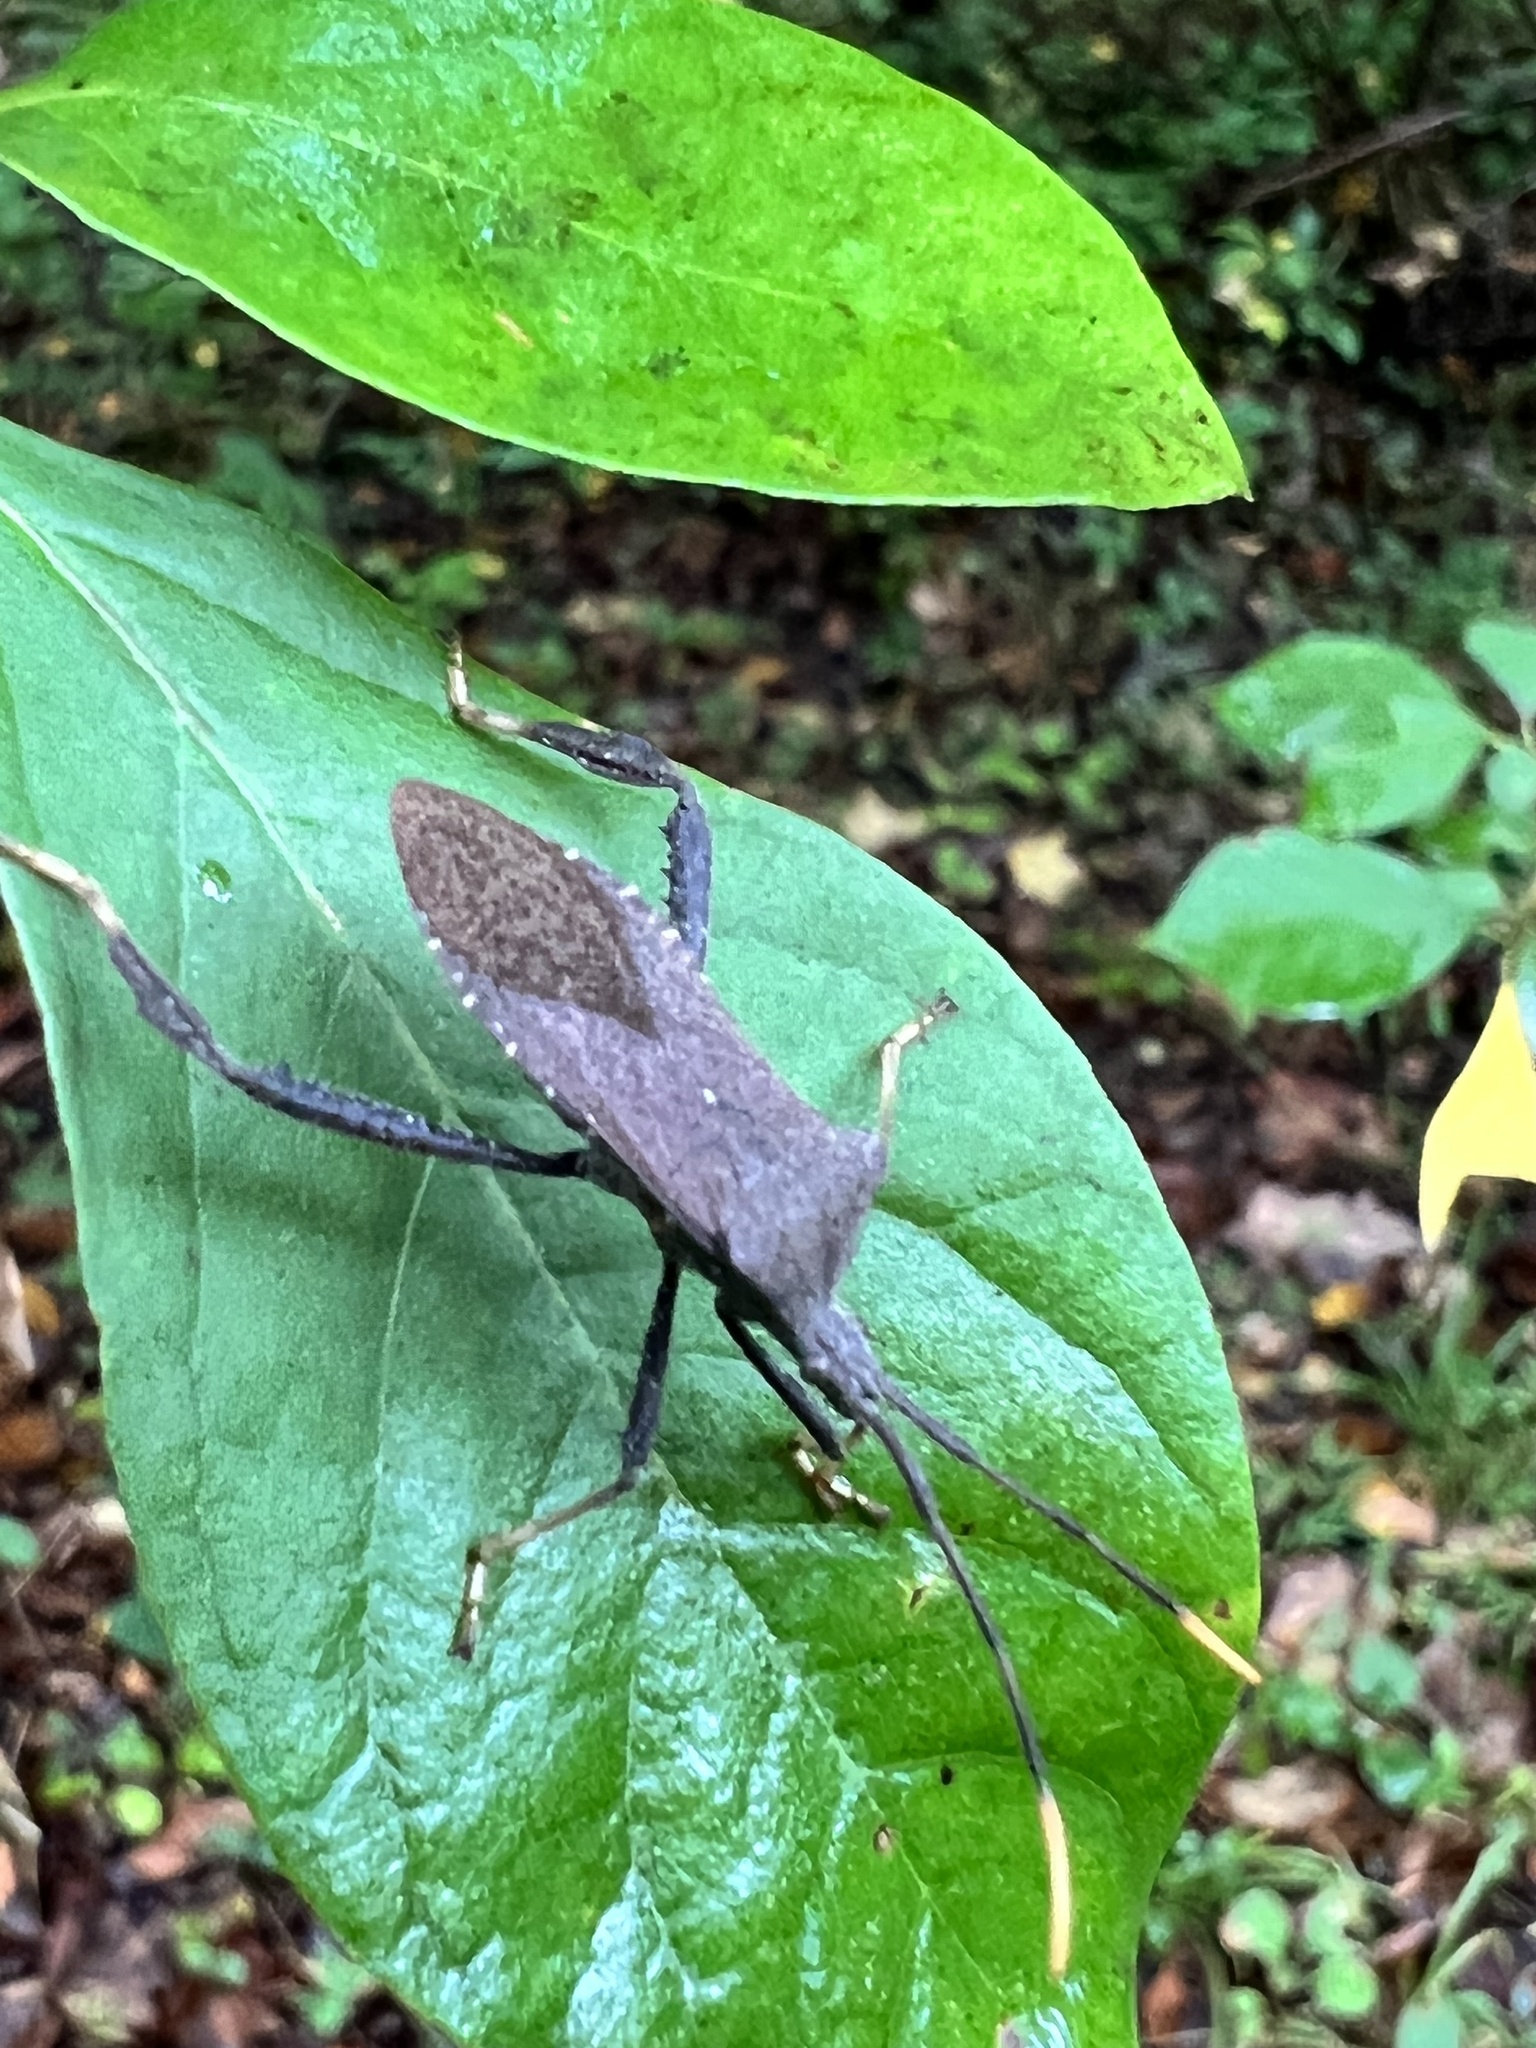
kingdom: Animalia
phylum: Arthropoda
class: Insecta
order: Hemiptera
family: Coreidae
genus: Acanthocephala
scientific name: Acanthocephala terminalis
